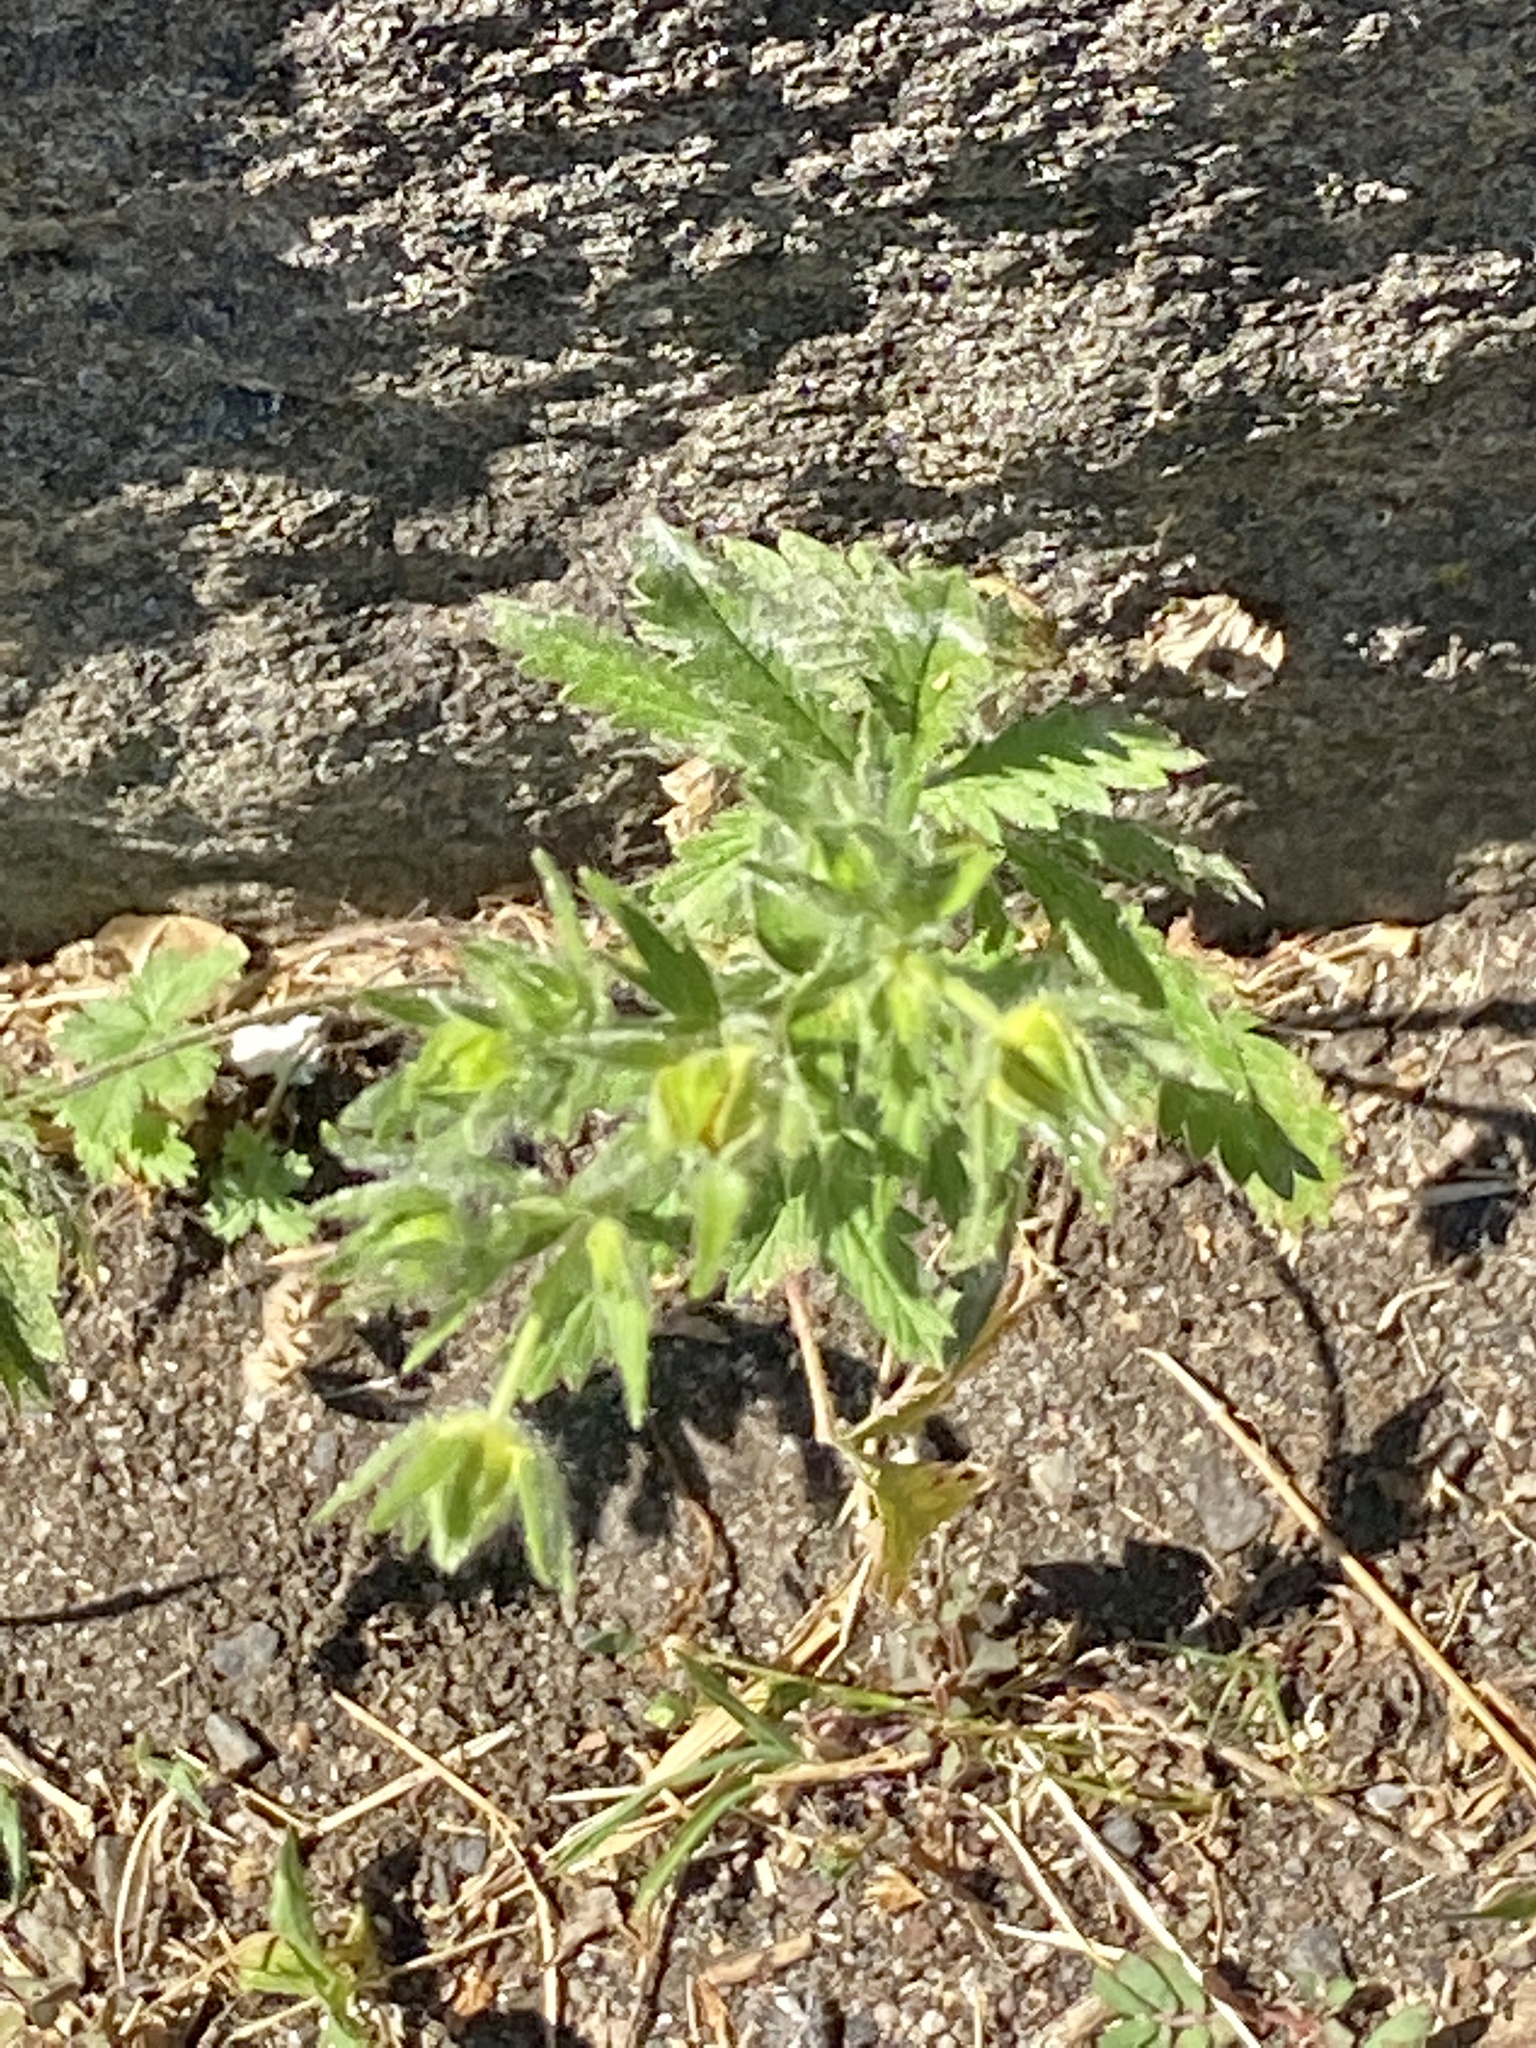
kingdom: Plantae
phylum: Tracheophyta
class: Magnoliopsida
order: Rosales
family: Rosaceae
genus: Potentilla
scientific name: Potentilla recta
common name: Sulphur cinquefoil
